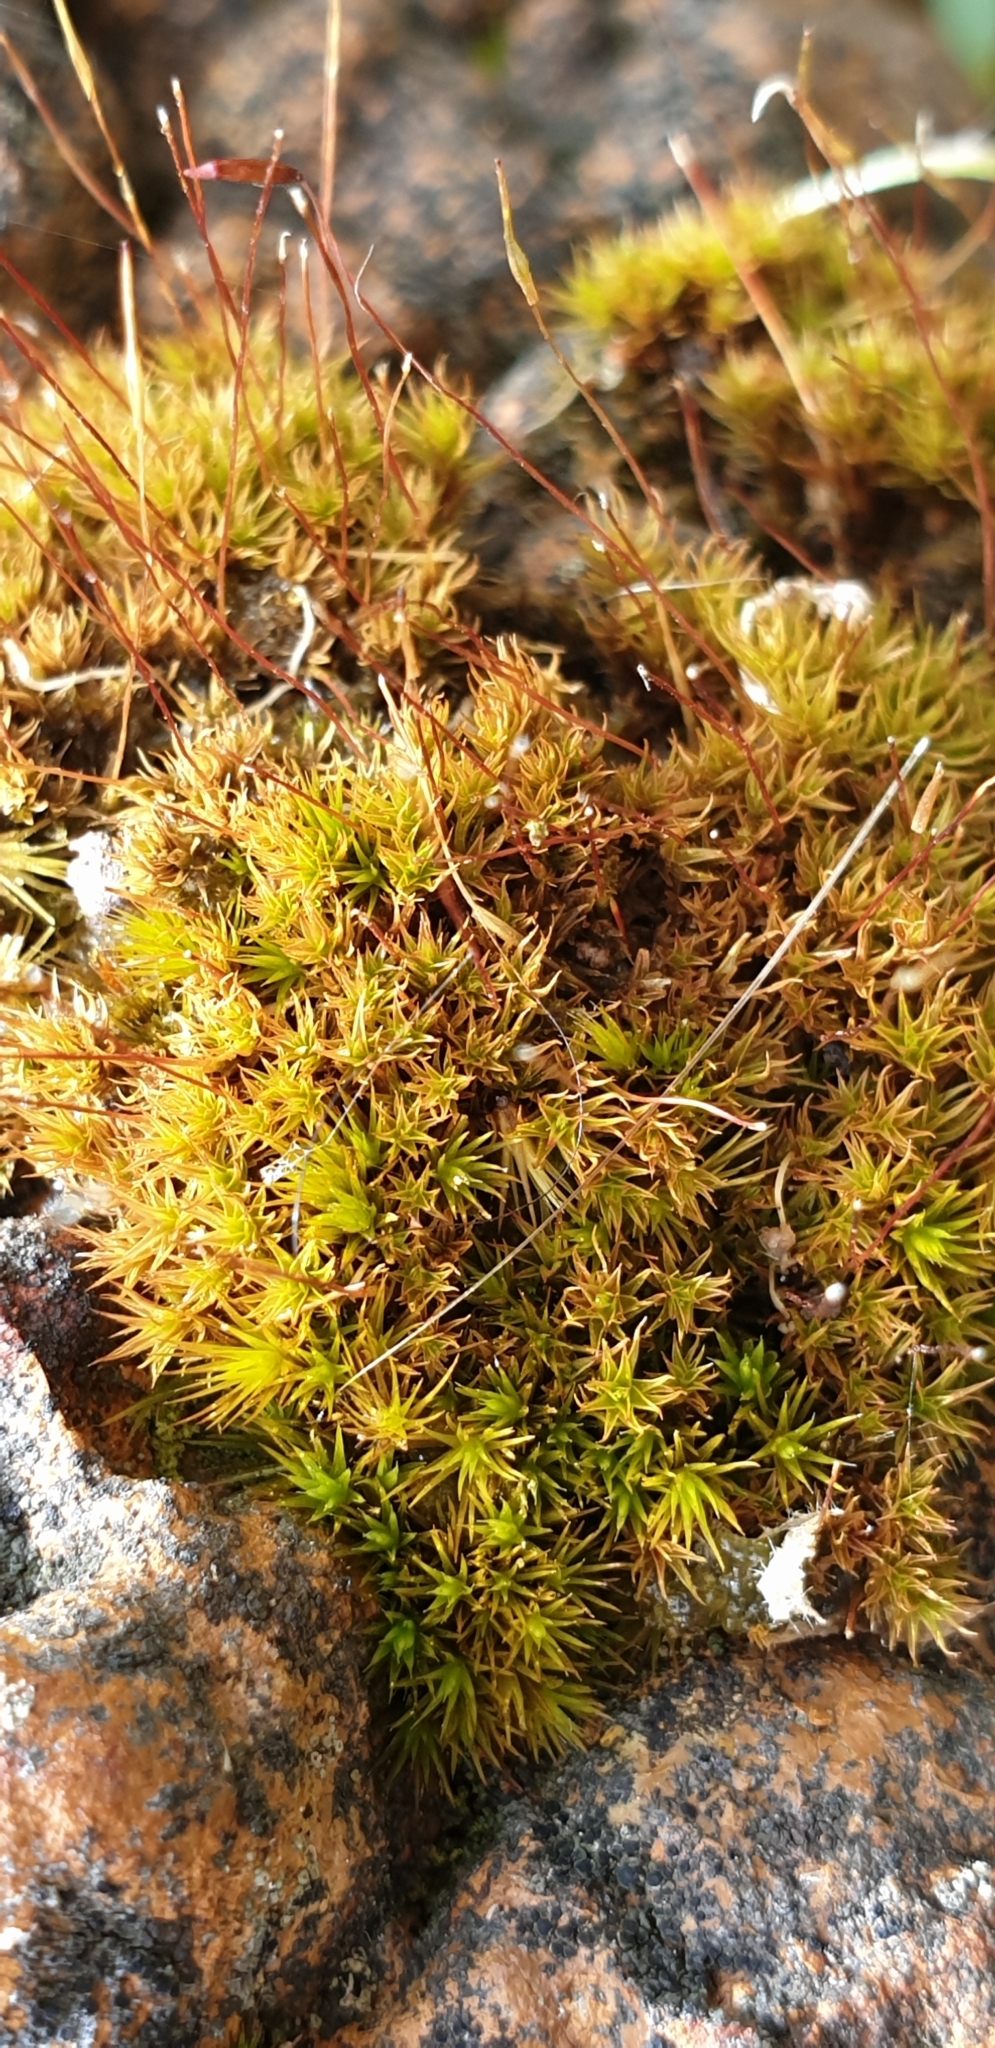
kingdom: Plantae
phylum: Bryophyta
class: Bryopsida
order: Dicranales
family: Ditrichaceae
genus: Ceratodon
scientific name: Ceratodon purpureus
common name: Redshank
